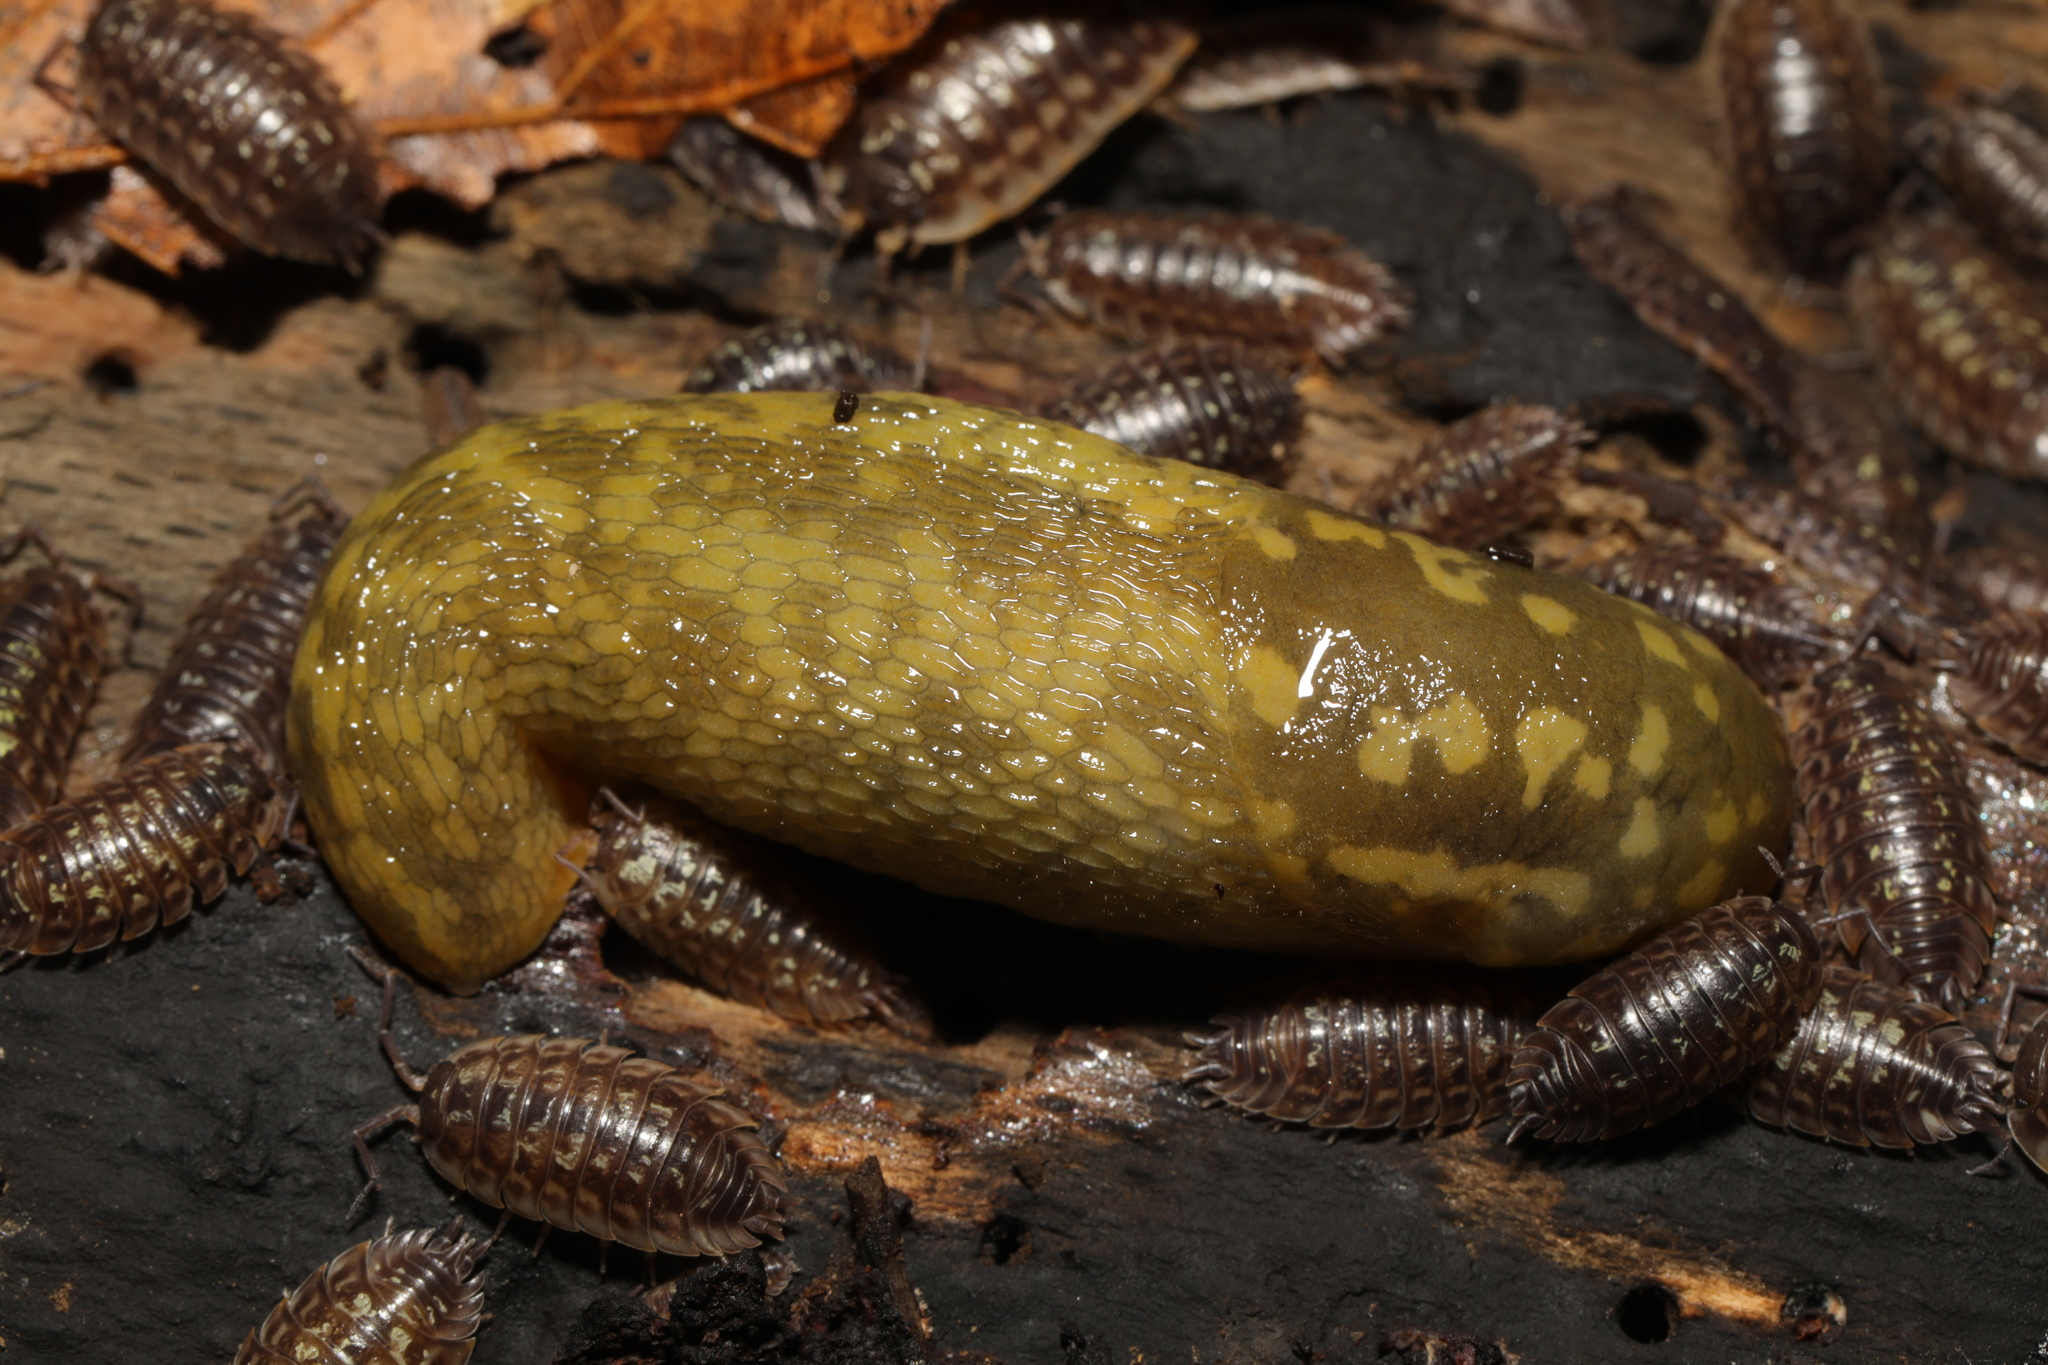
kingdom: Animalia
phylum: Mollusca
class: Gastropoda
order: Stylommatophora
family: Limacidae
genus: Limacus
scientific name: Limacus maculatus
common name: Irish yellow slug
